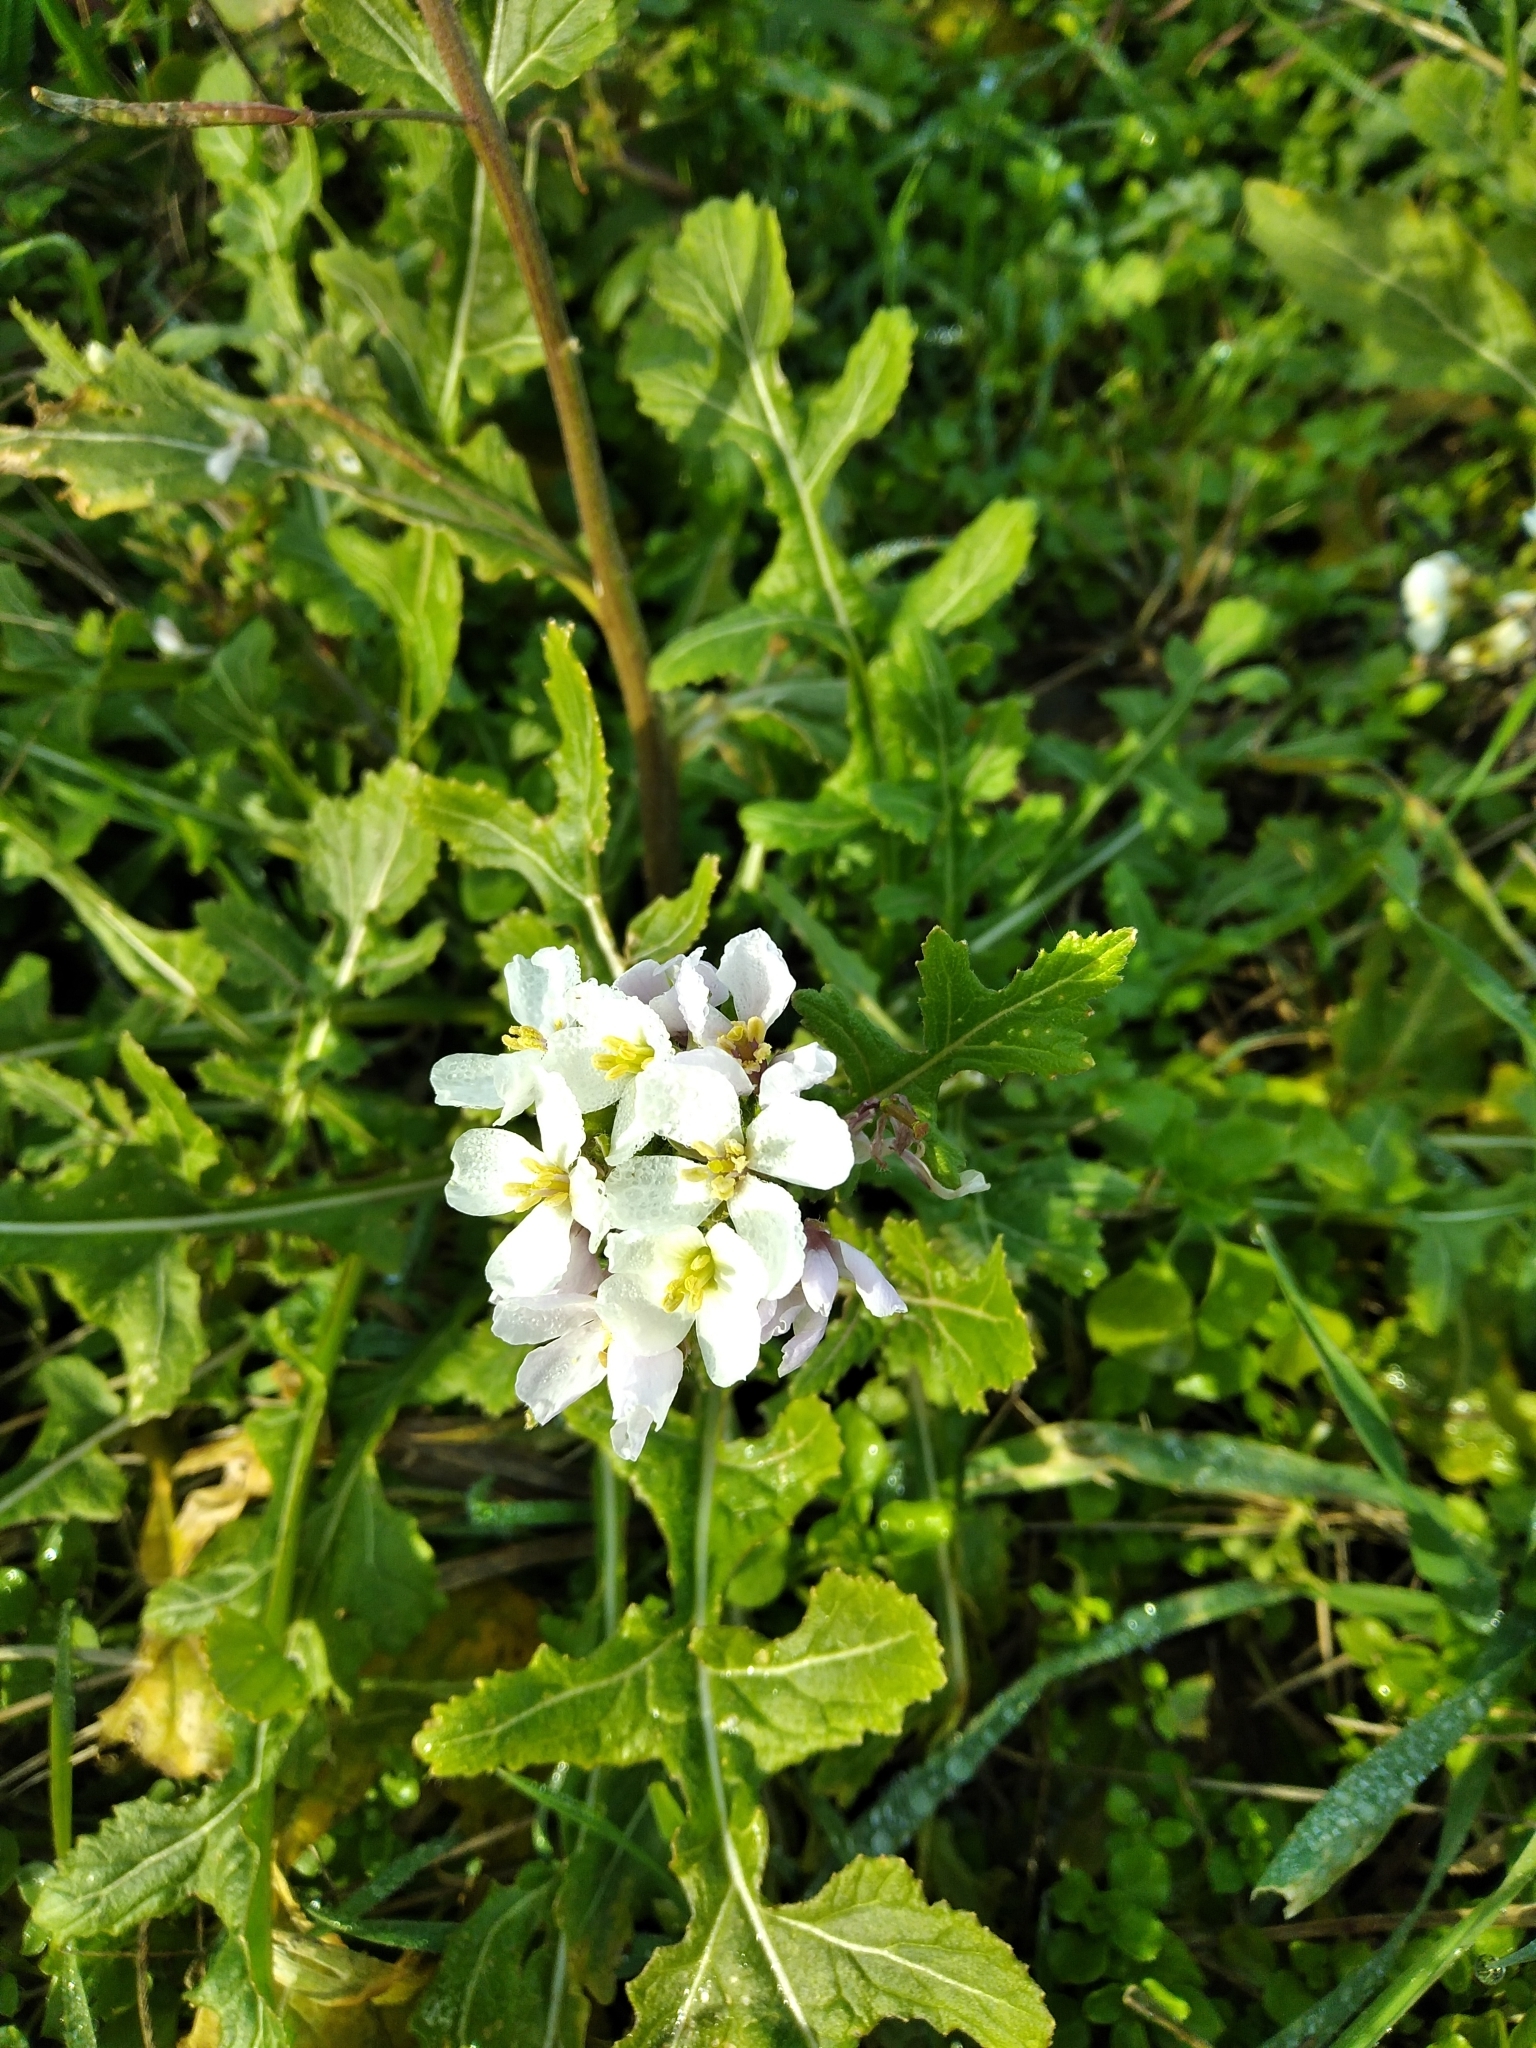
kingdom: Plantae
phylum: Tracheophyta
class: Magnoliopsida
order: Brassicales
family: Brassicaceae
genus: Diplotaxis
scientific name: Diplotaxis erucoides
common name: White rocket
